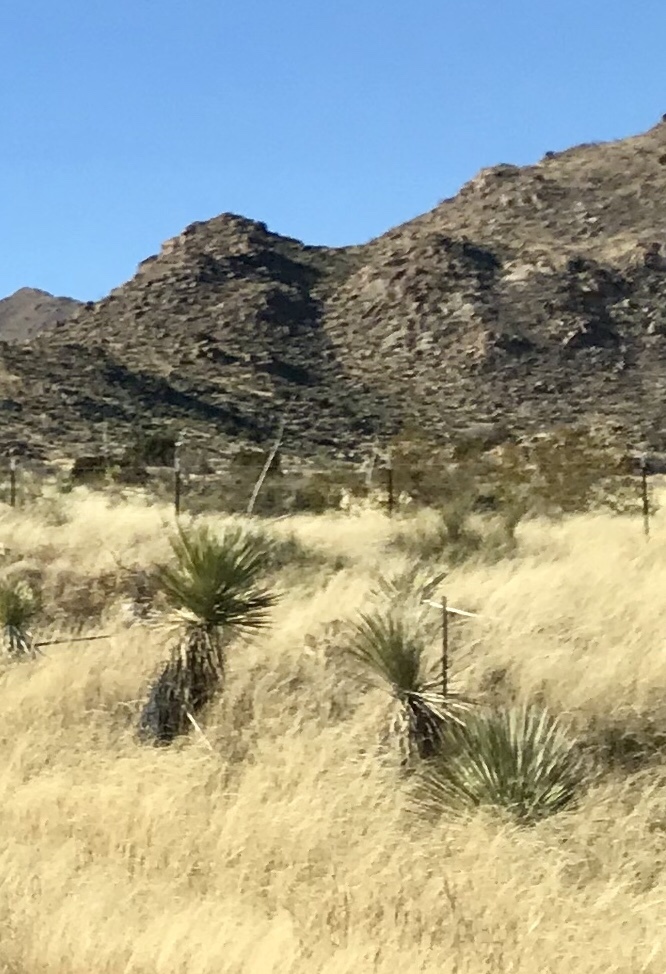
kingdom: Plantae
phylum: Tracheophyta
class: Liliopsida
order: Asparagales
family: Asparagaceae
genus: Yucca
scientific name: Yucca elata
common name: Palmella
